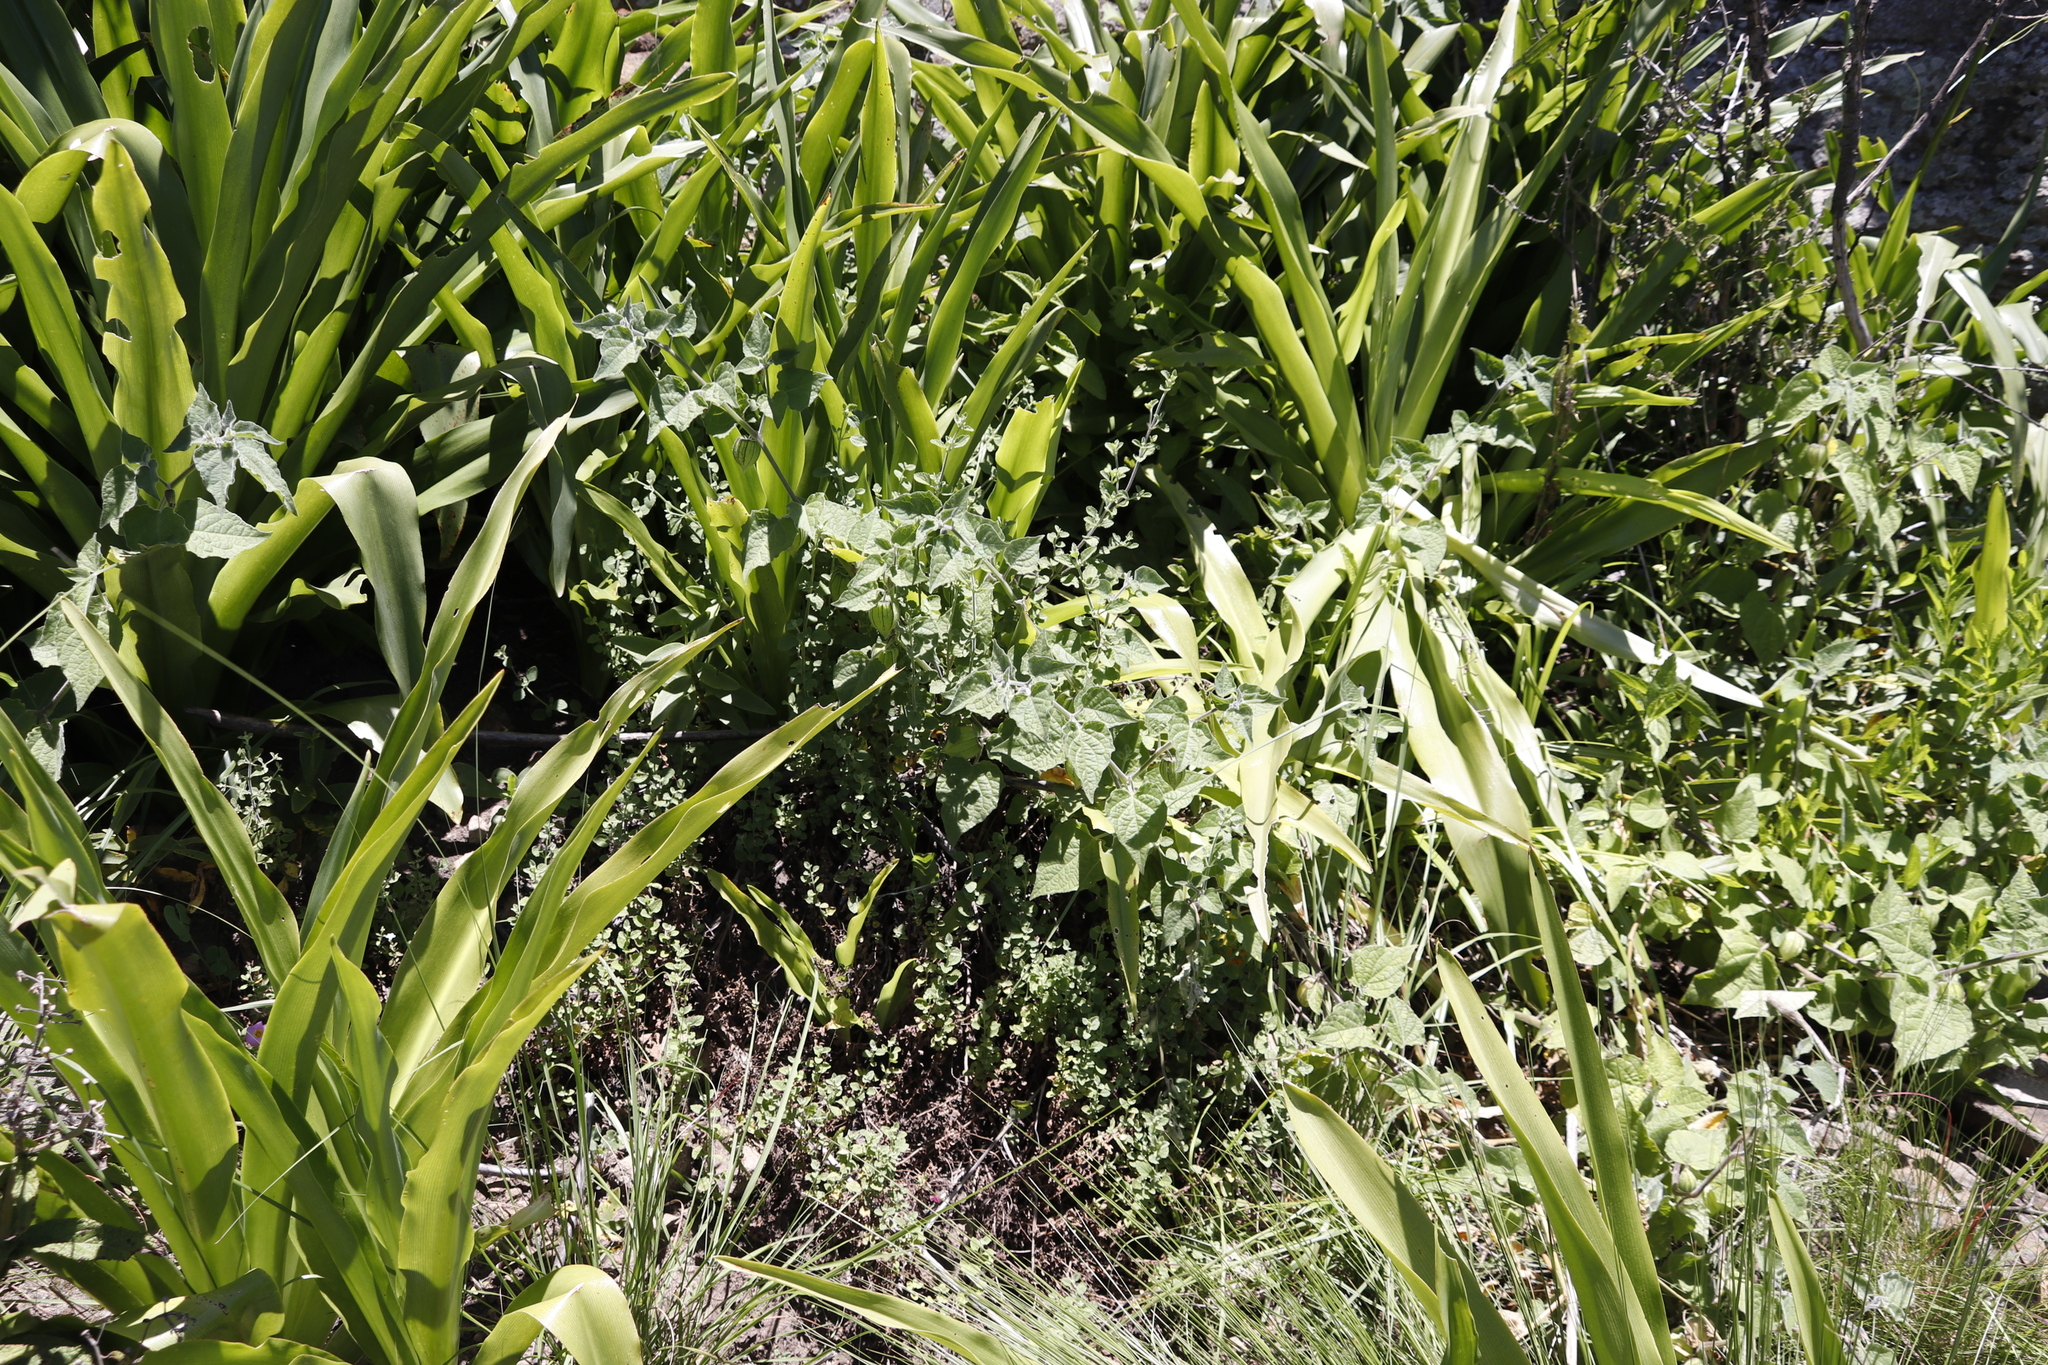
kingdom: Plantae
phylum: Tracheophyta
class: Magnoliopsida
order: Solanales
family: Solanaceae
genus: Physalis
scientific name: Physalis peruviana
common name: Cape-gooseberry
